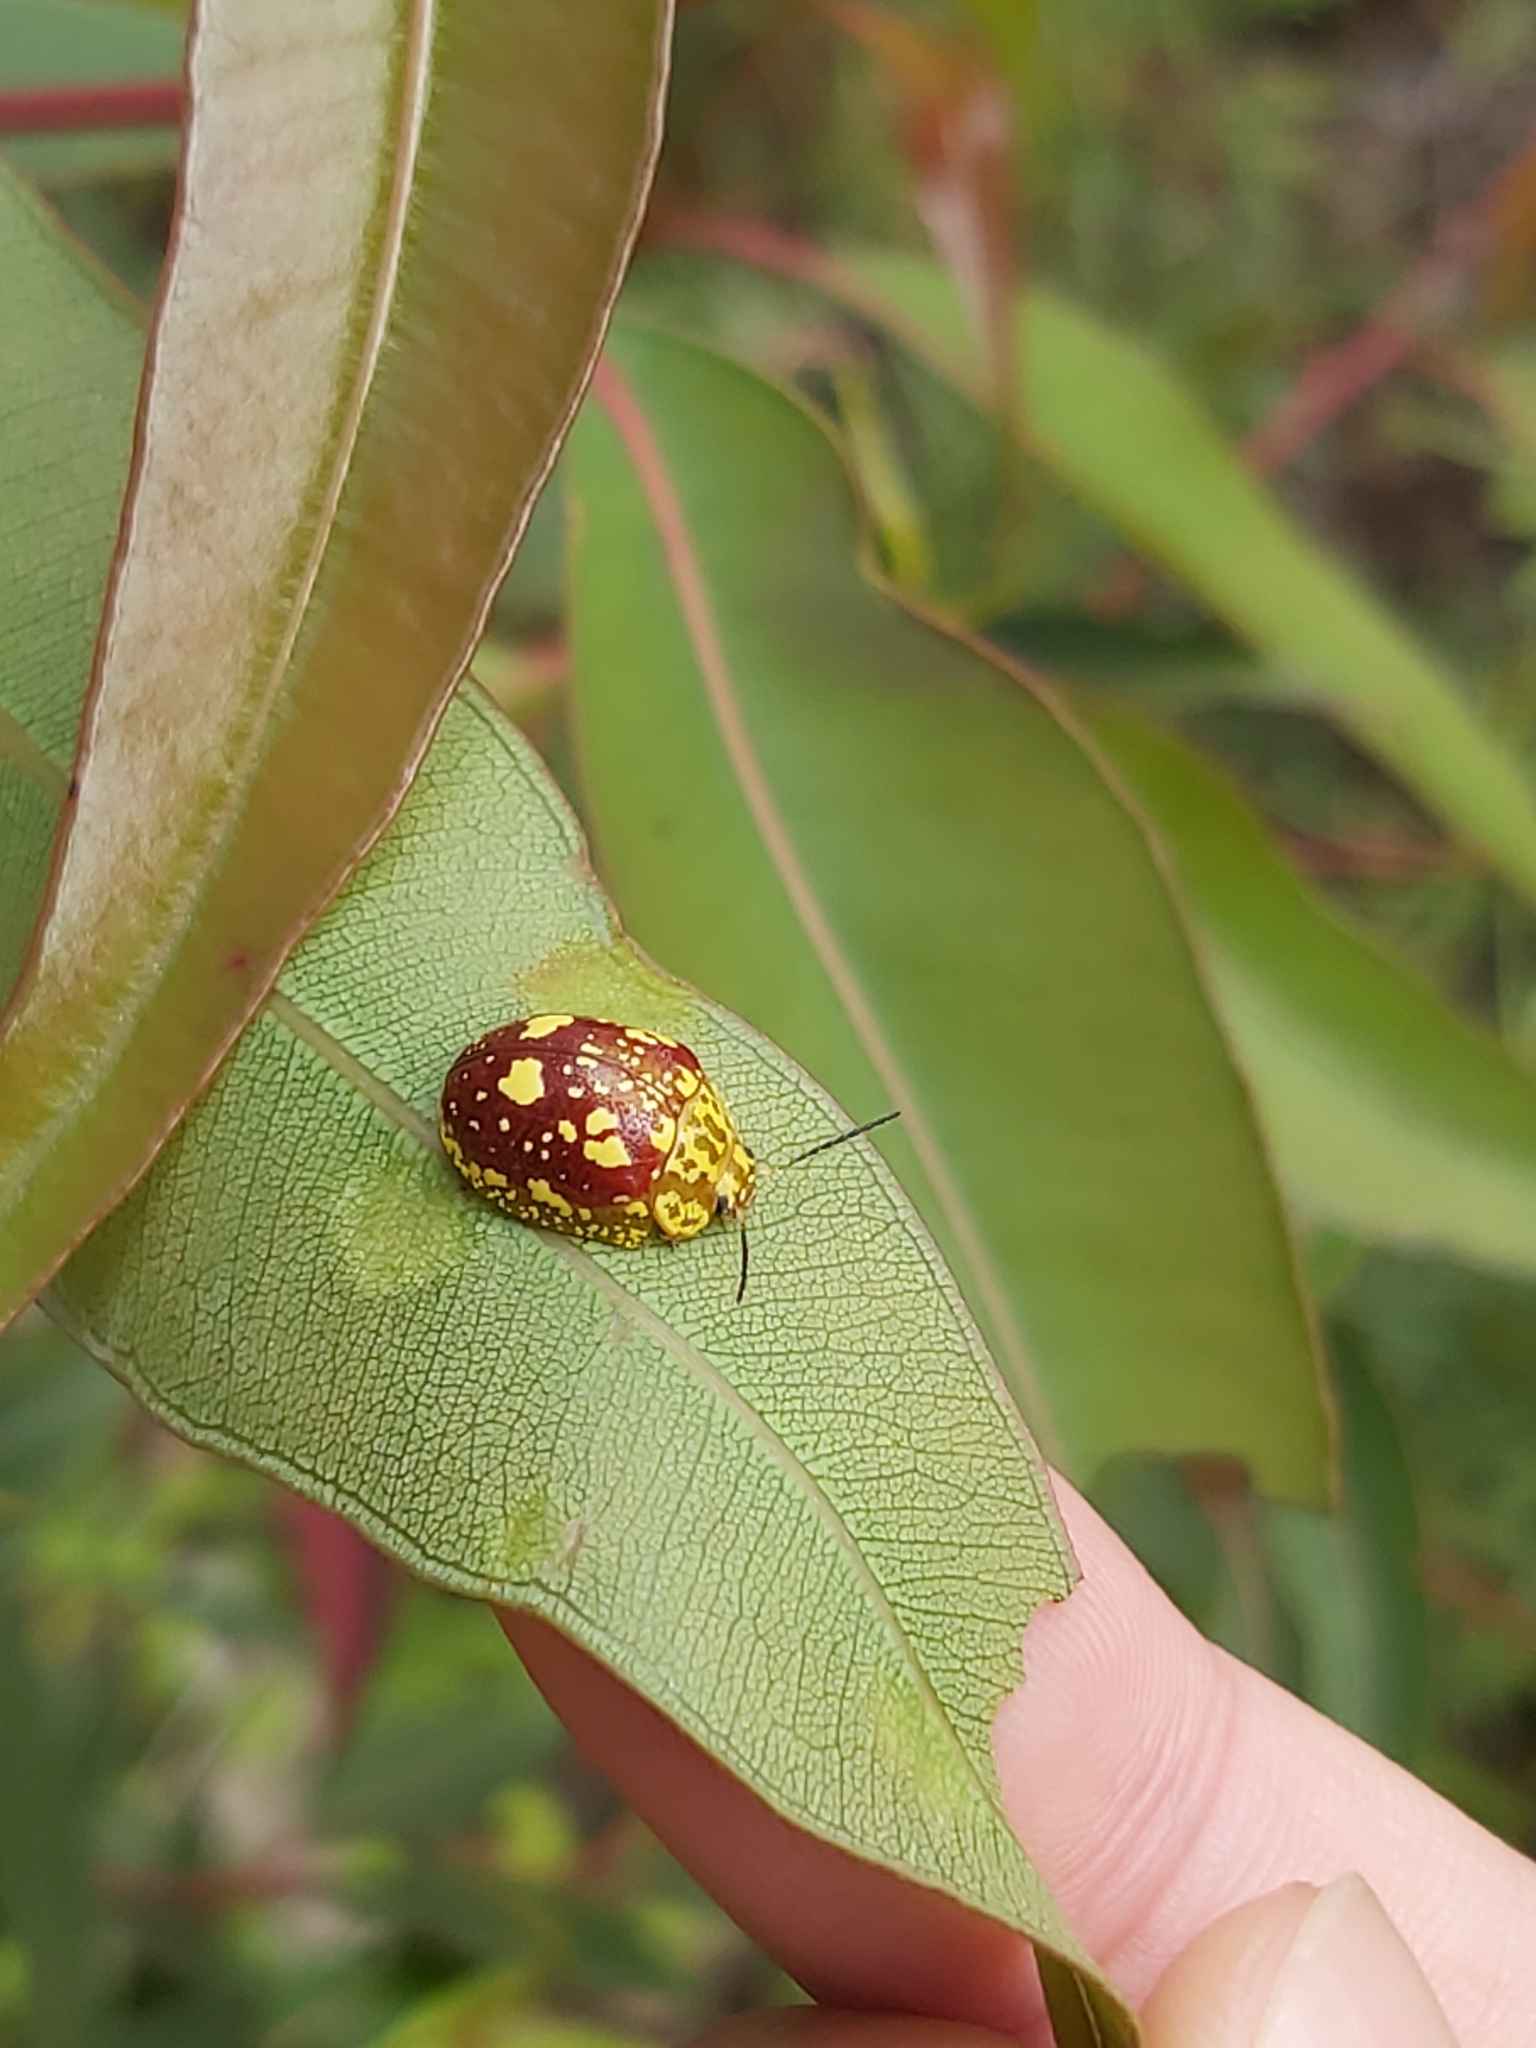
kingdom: Animalia
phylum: Arthropoda
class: Insecta
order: Coleoptera
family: Chrysomelidae
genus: Paropsis
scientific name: Paropsis maculata
